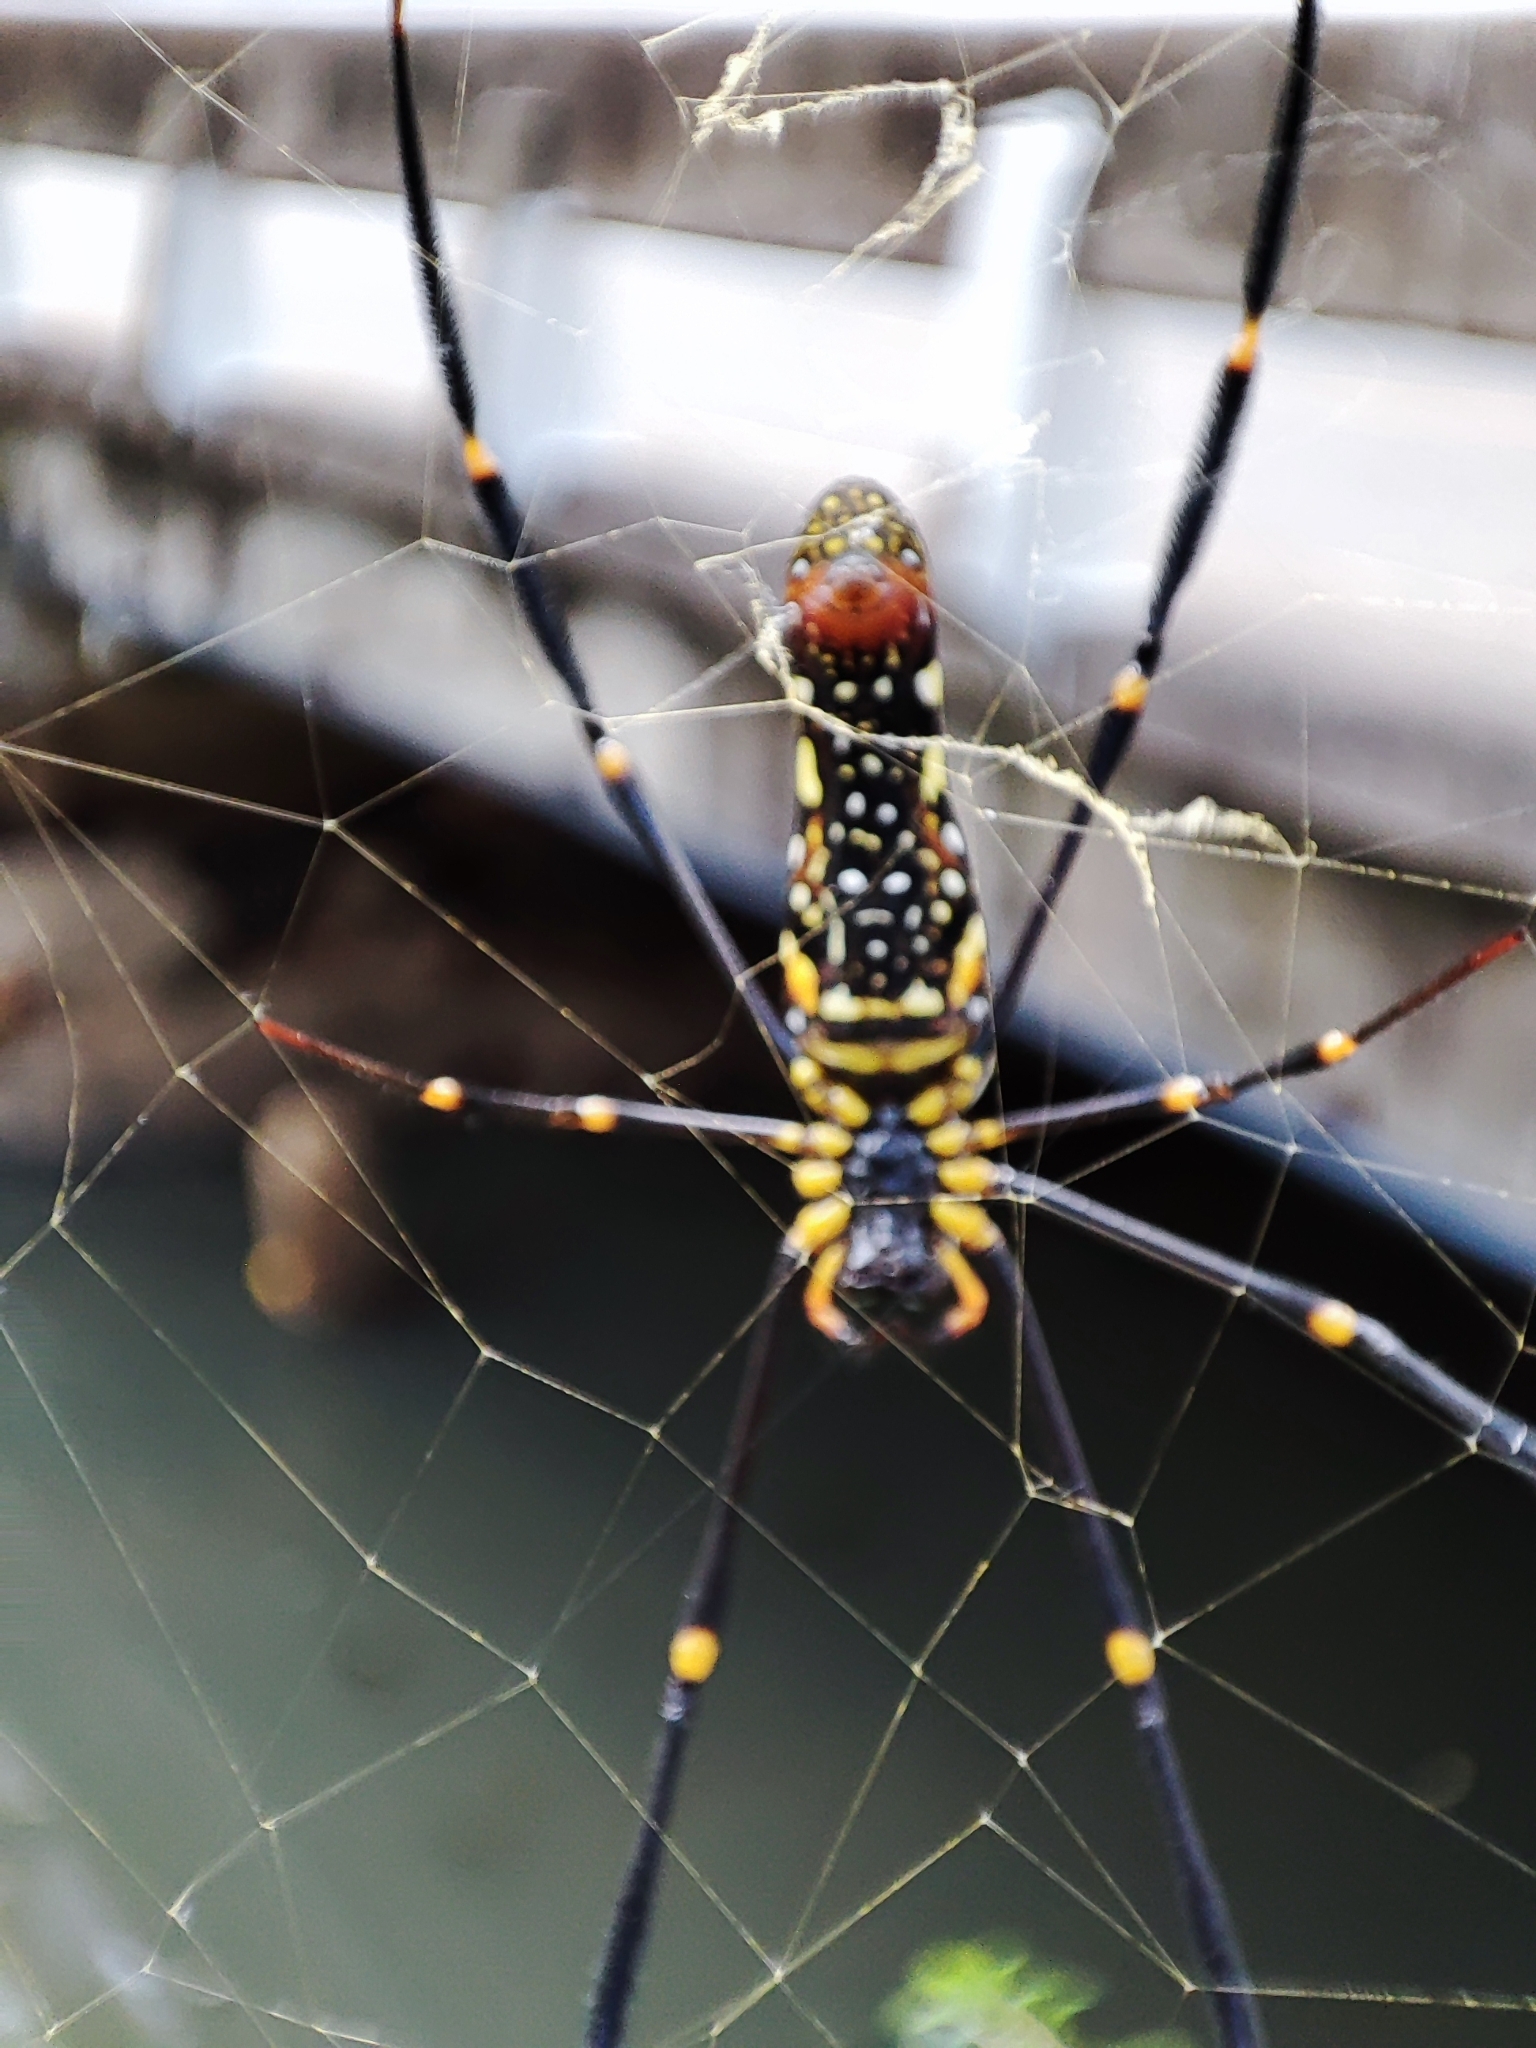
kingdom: Animalia
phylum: Arthropoda
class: Arachnida
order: Araneae
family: Araneidae
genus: Nephila
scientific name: Nephila pilipes
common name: Giant golden orb weaver
